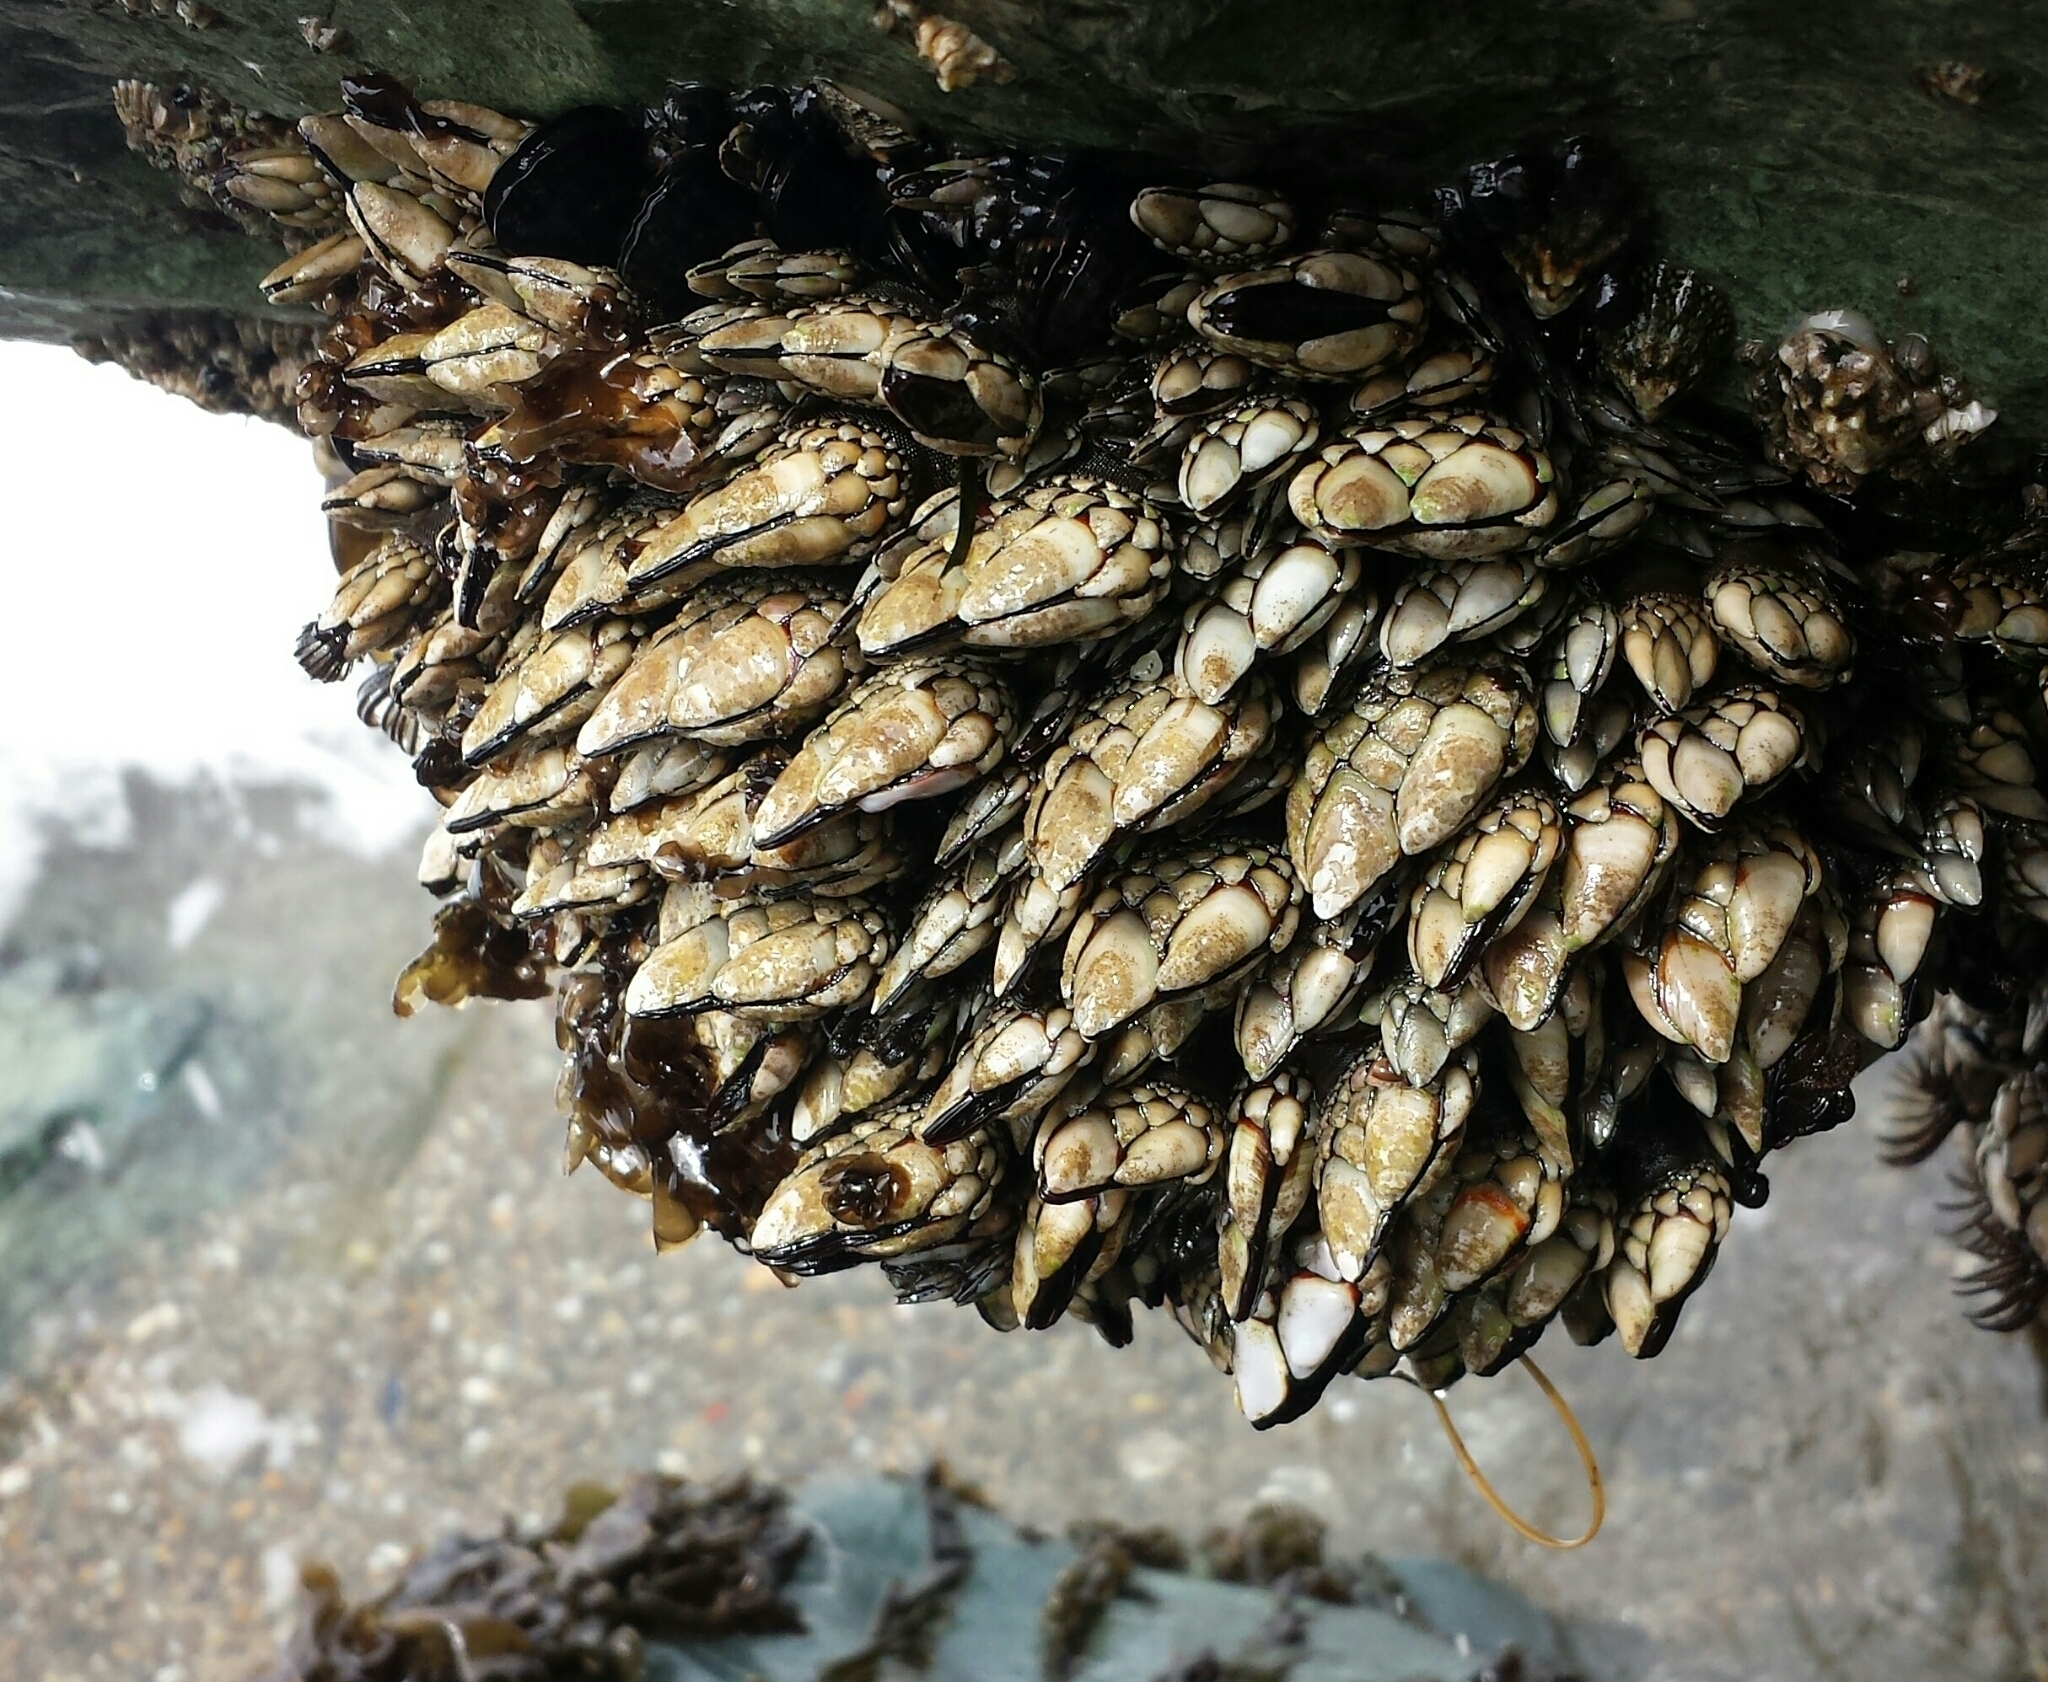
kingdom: Animalia
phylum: Arthropoda
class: Maxillopoda
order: Pedunculata
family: Pollicipedidae
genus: Pollicipes
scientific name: Pollicipes polymerus
